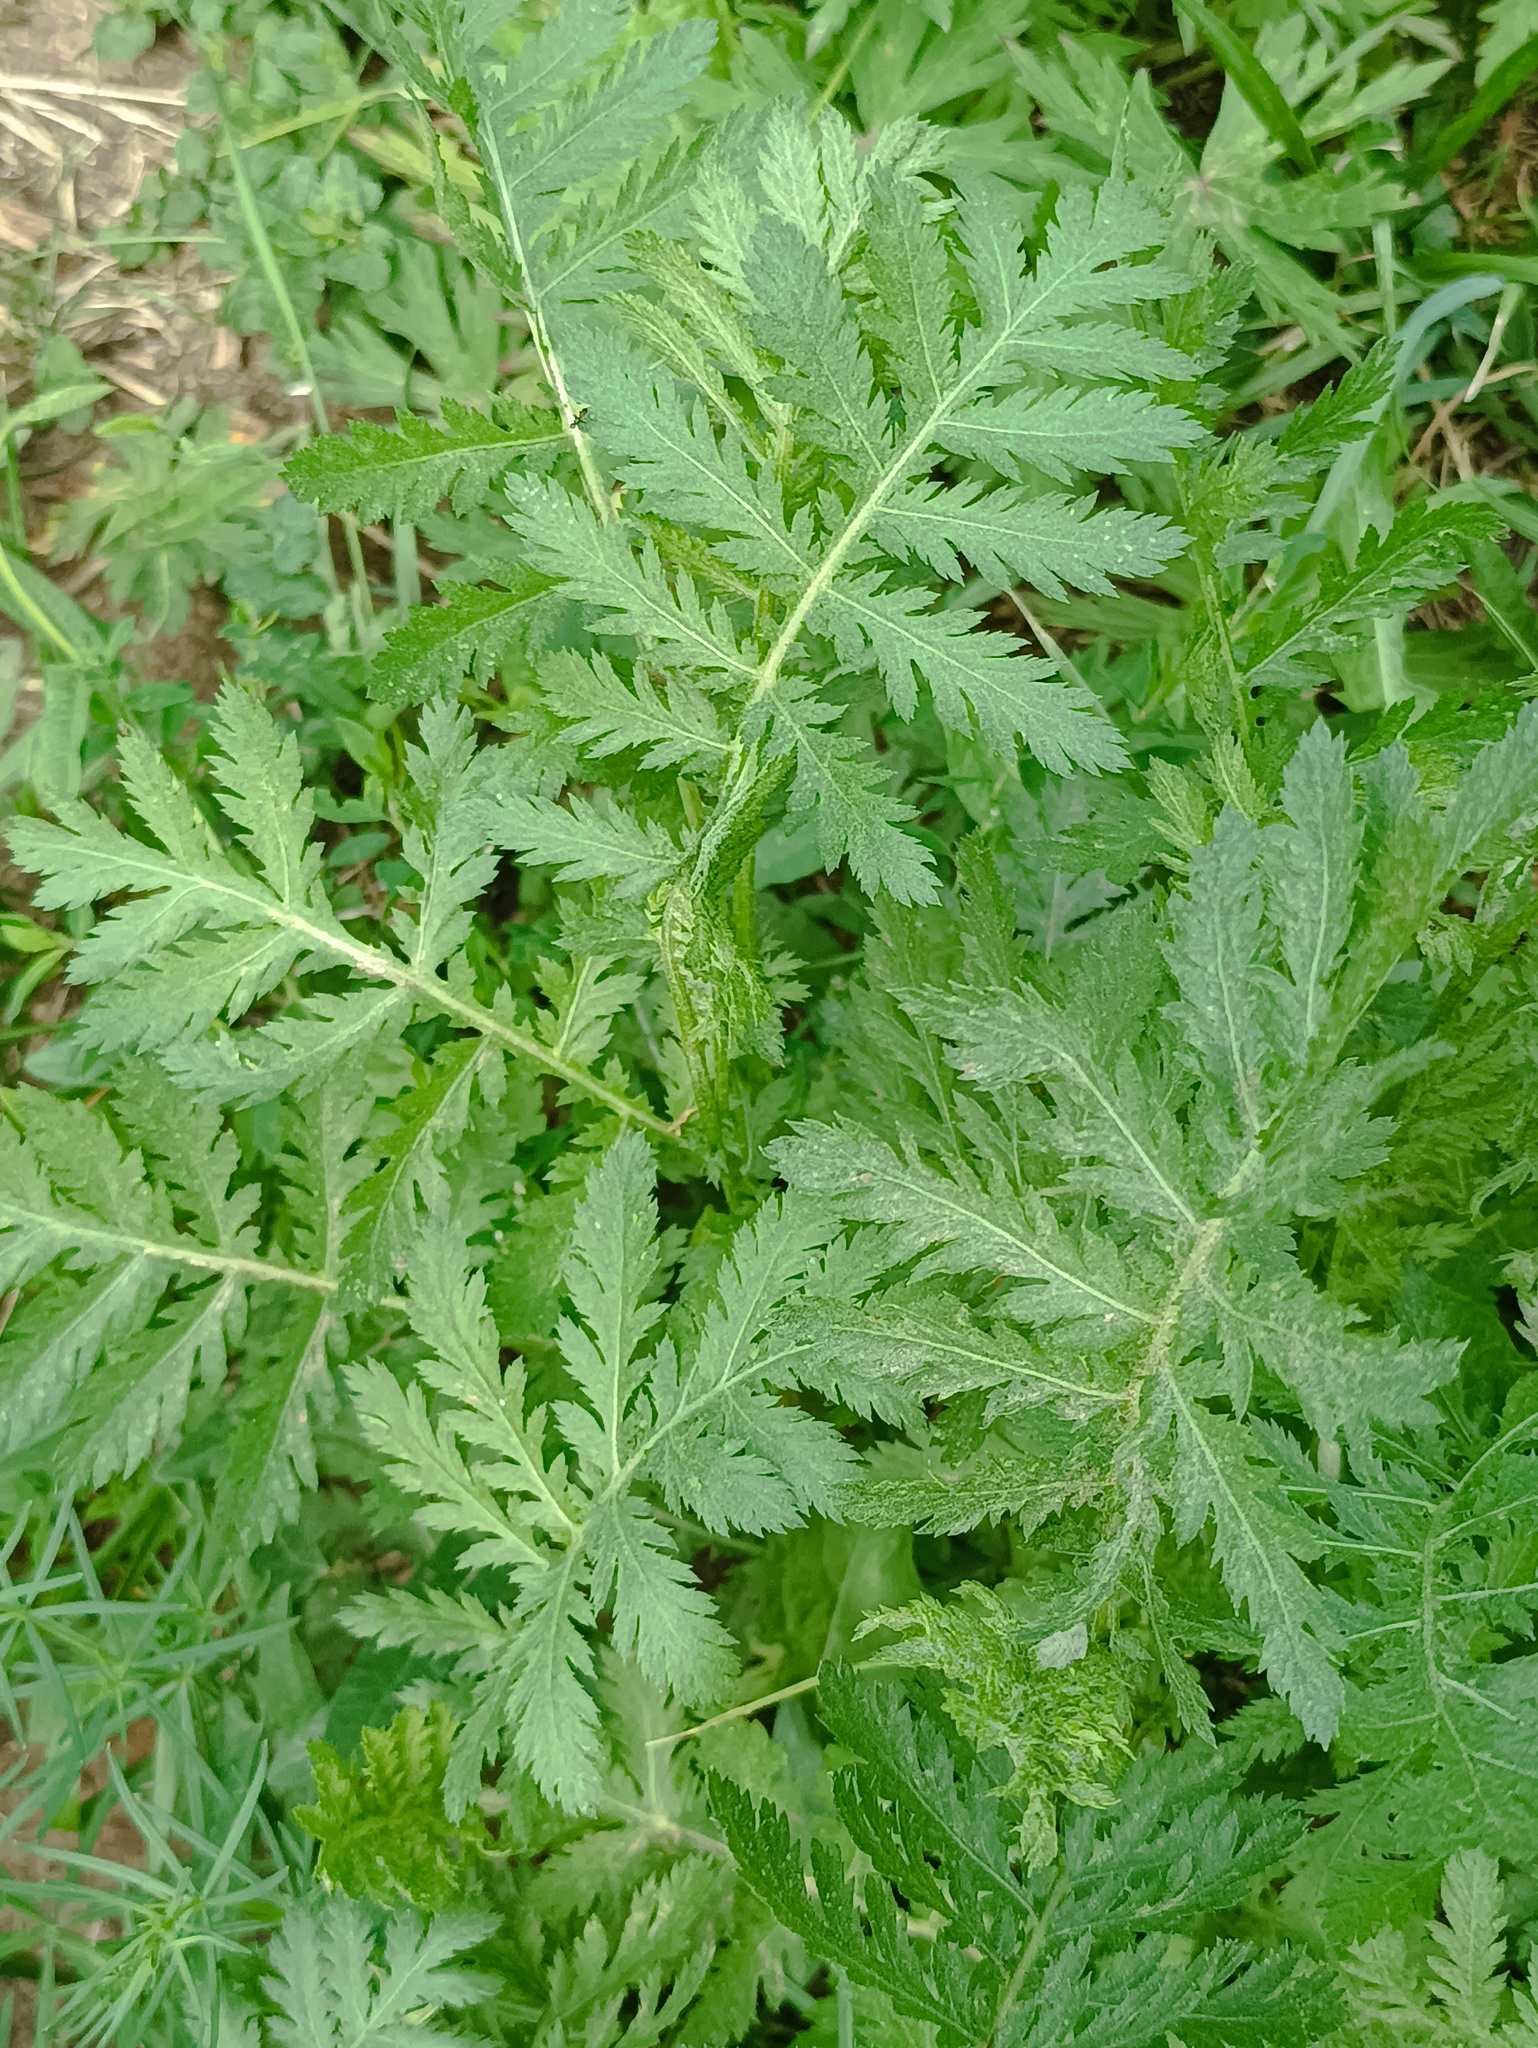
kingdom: Plantae
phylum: Tracheophyta
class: Magnoliopsida
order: Asterales
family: Asteraceae
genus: Tanacetum
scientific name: Tanacetum vulgare
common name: Common tansy
